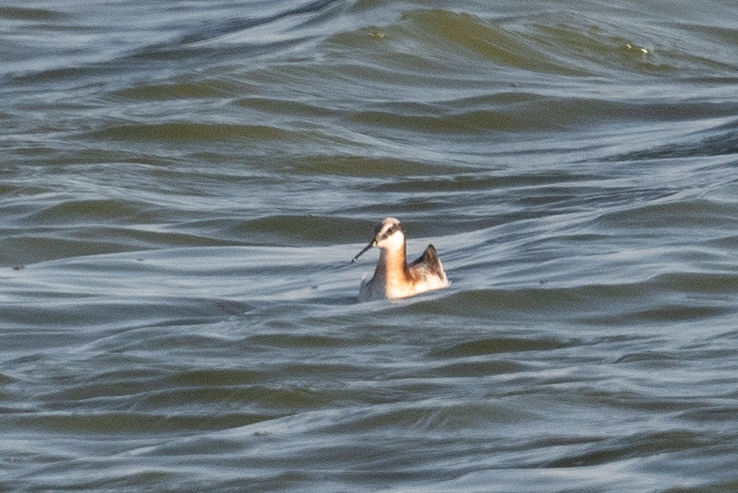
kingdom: Animalia
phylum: Chordata
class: Aves
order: Charadriiformes
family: Scolopacidae
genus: Phalaropus
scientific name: Phalaropus tricolor
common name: Wilson's phalarope
